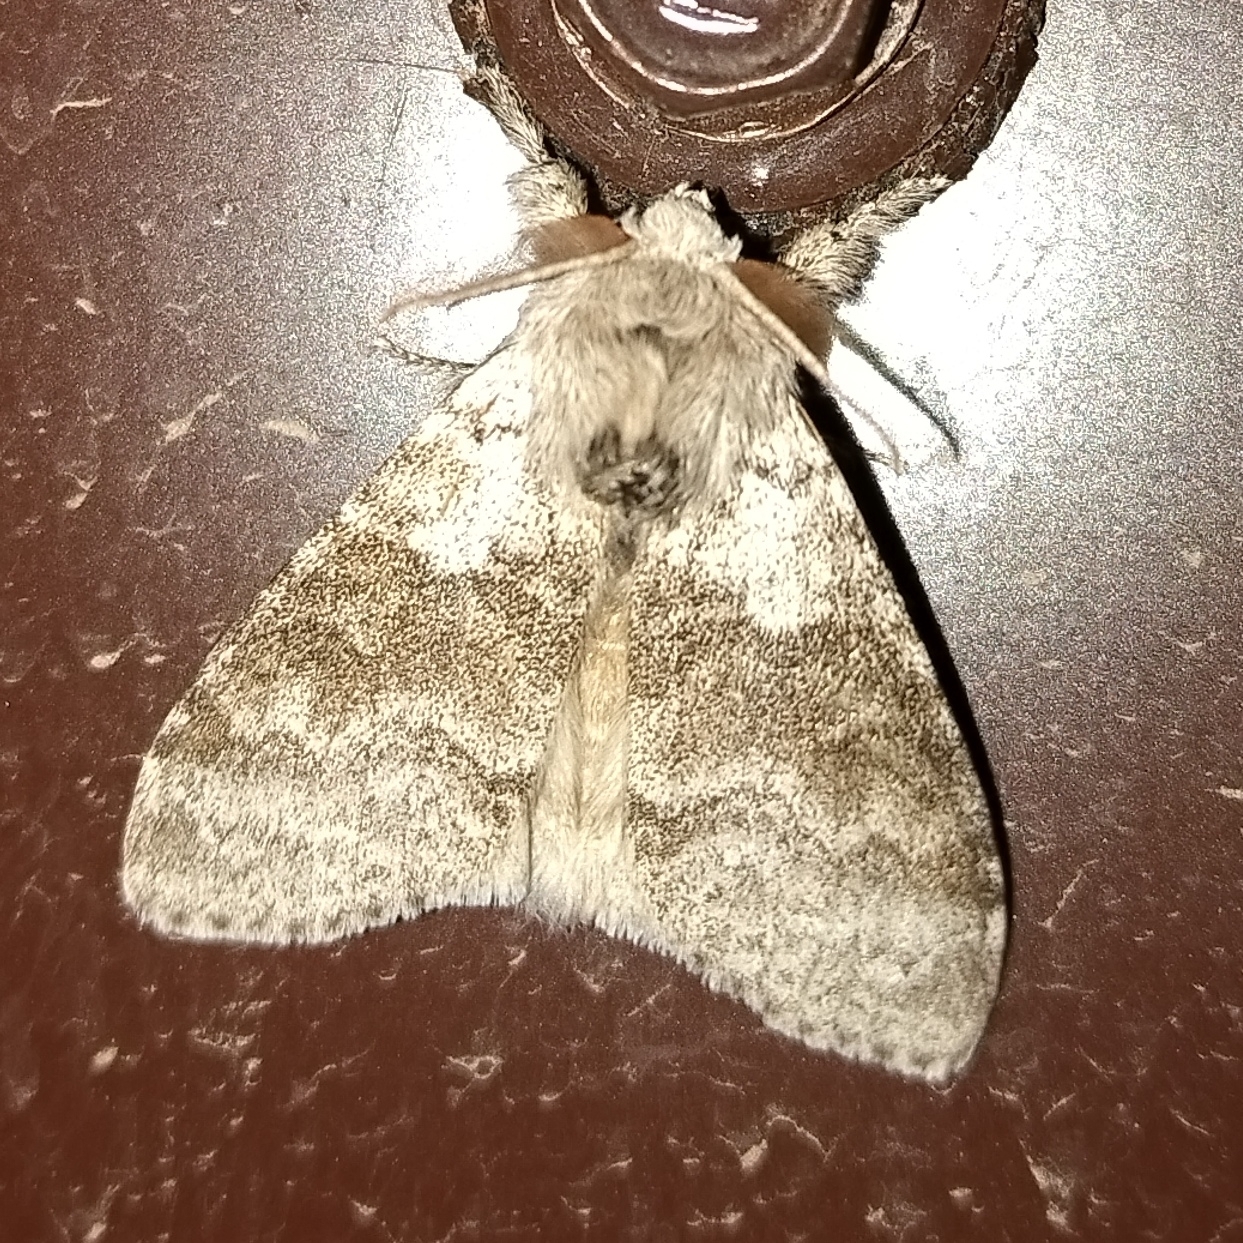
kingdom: Animalia
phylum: Arthropoda
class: Insecta
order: Lepidoptera
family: Erebidae
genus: Calliteara
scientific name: Calliteara pudibunda
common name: Pale tussock
